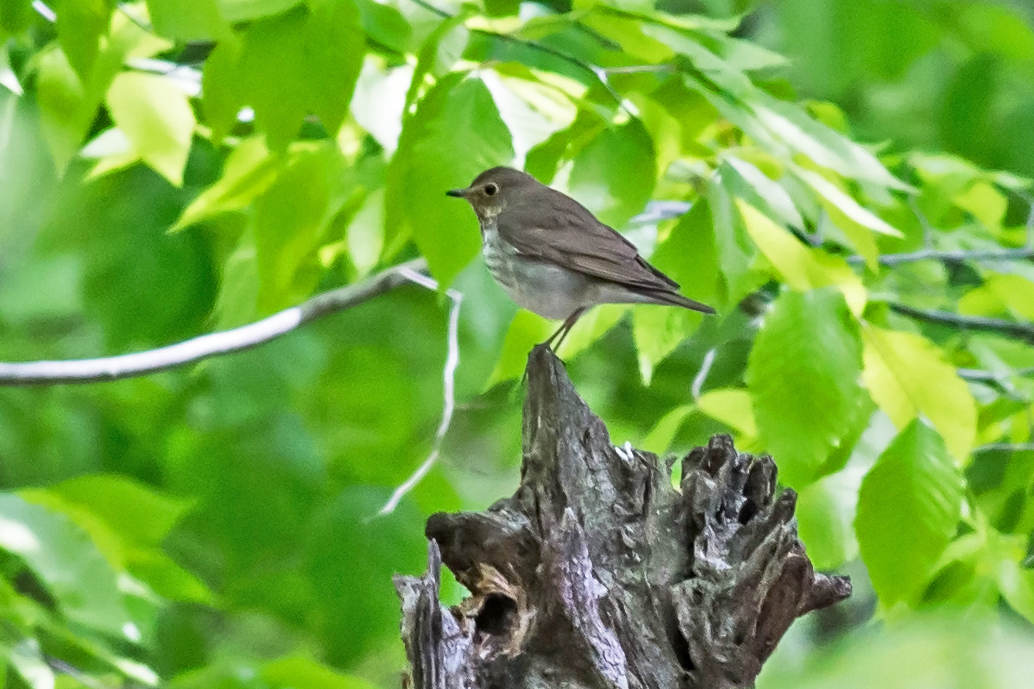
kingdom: Animalia
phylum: Chordata
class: Aves
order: Passeriformes
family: Turdidae
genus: Catharus
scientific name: Catharus ustulatus
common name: Swainson's thrush
